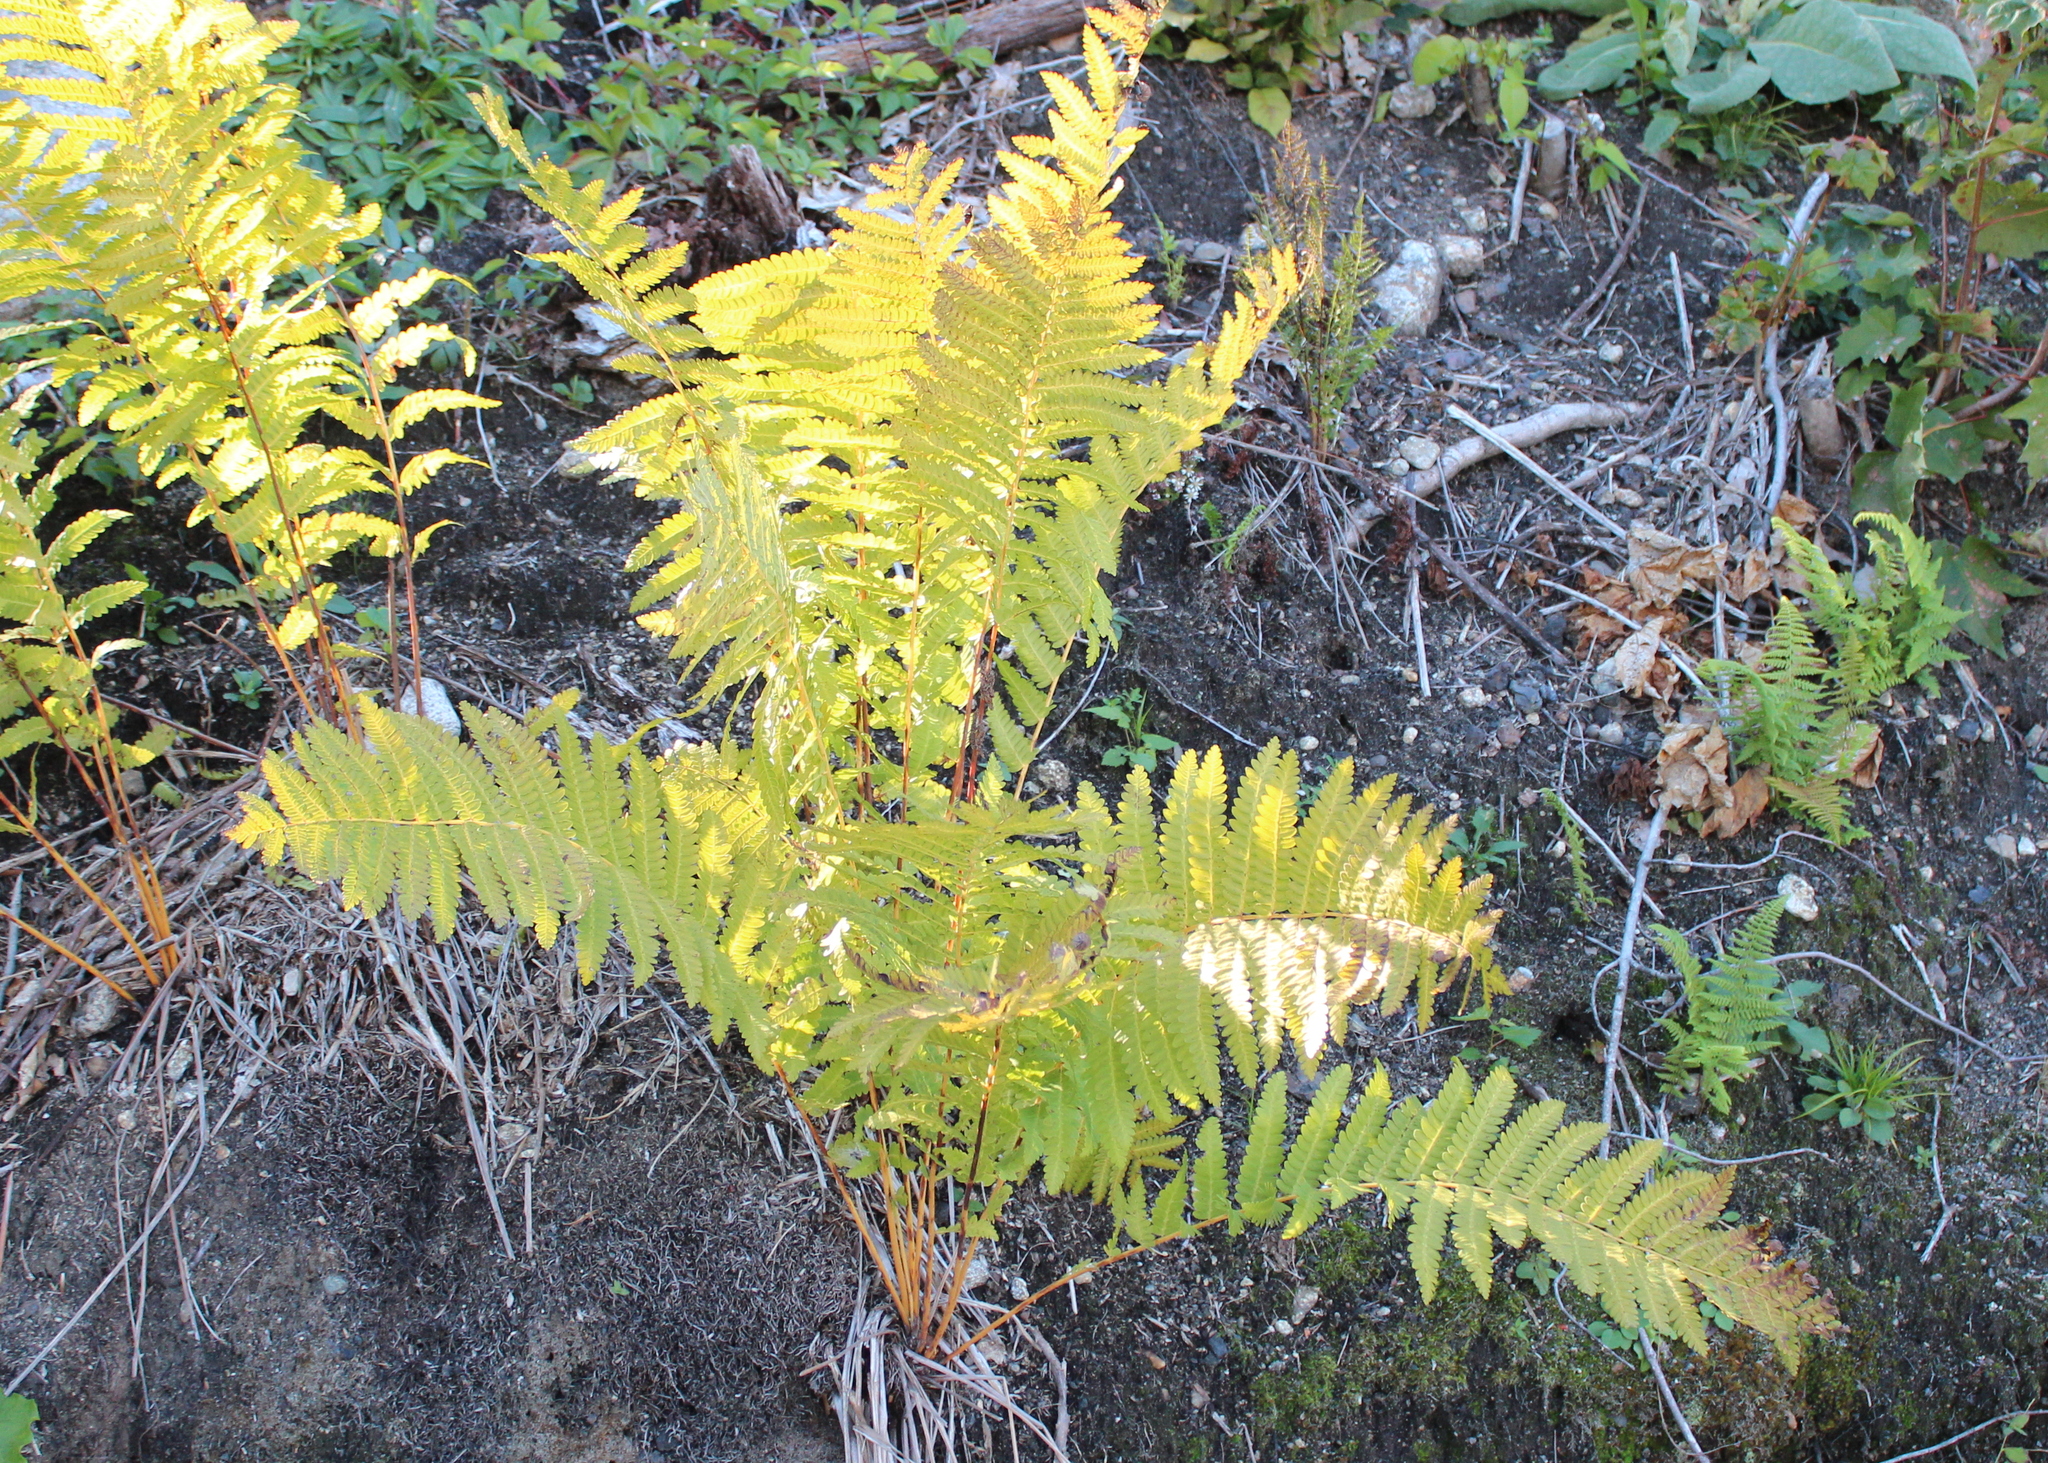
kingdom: Plantae
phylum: Tracheophyta
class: Polypodiopsida
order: Osmundales
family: Osmundaceae
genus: Claytosmunda
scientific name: Claytosmunda claytoniana
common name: Clayton's fern
